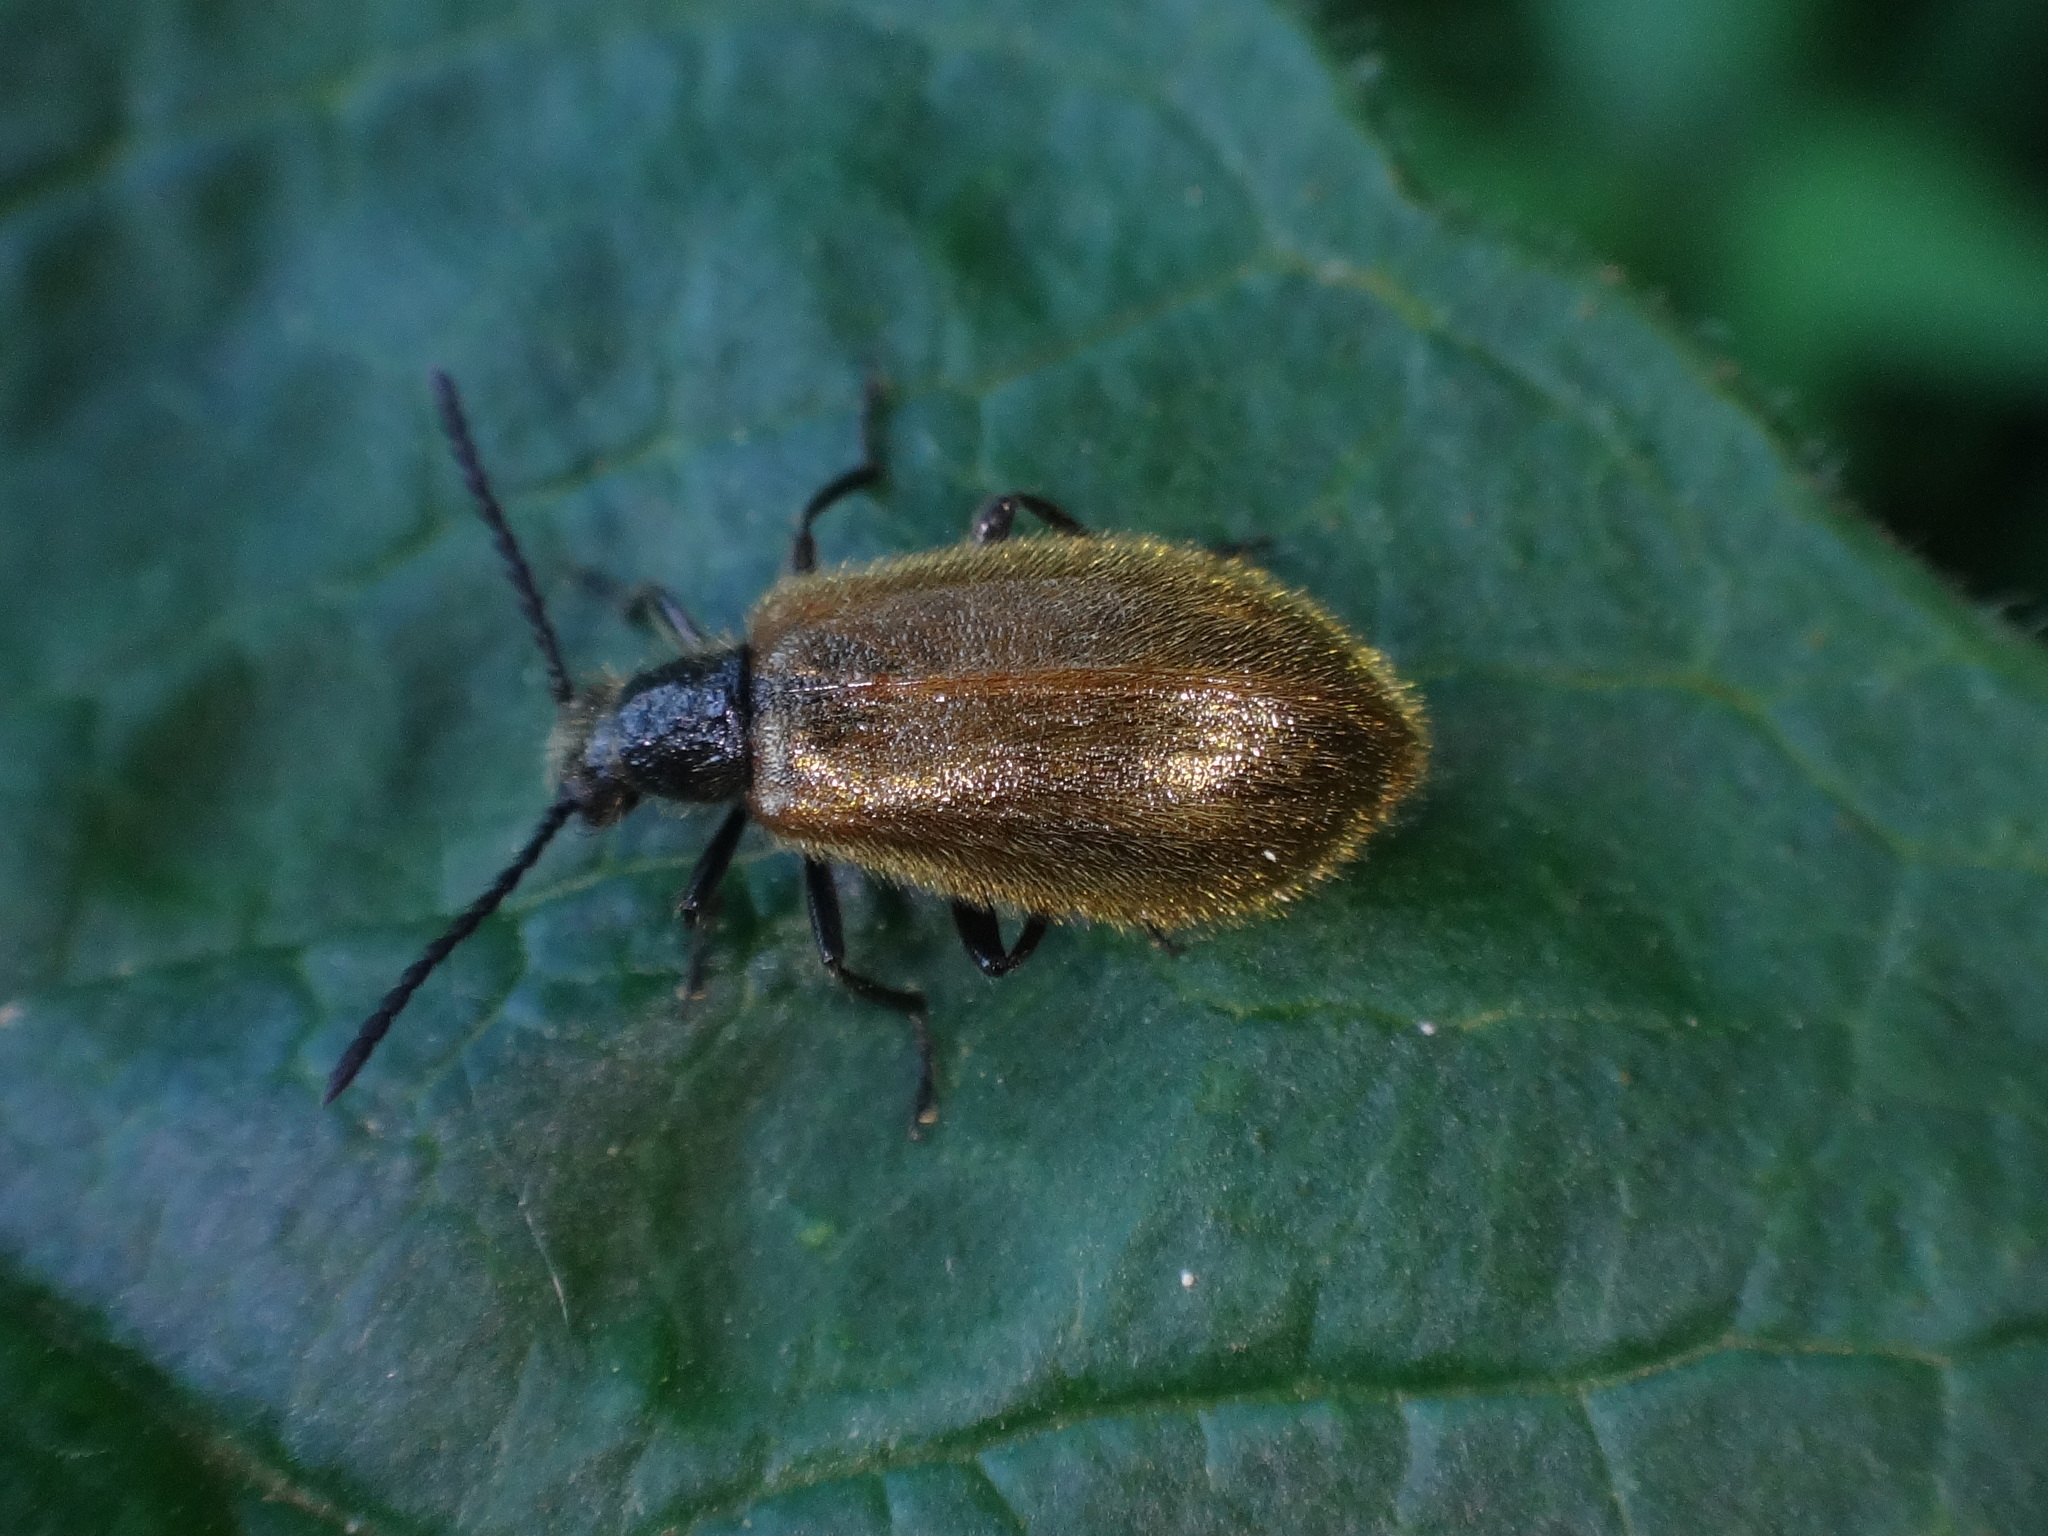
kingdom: Animalia
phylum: Arthropoda
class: Insecta
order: Coleoptera
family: Tenebrionidae
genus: Lagria
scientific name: Lagria hirta
